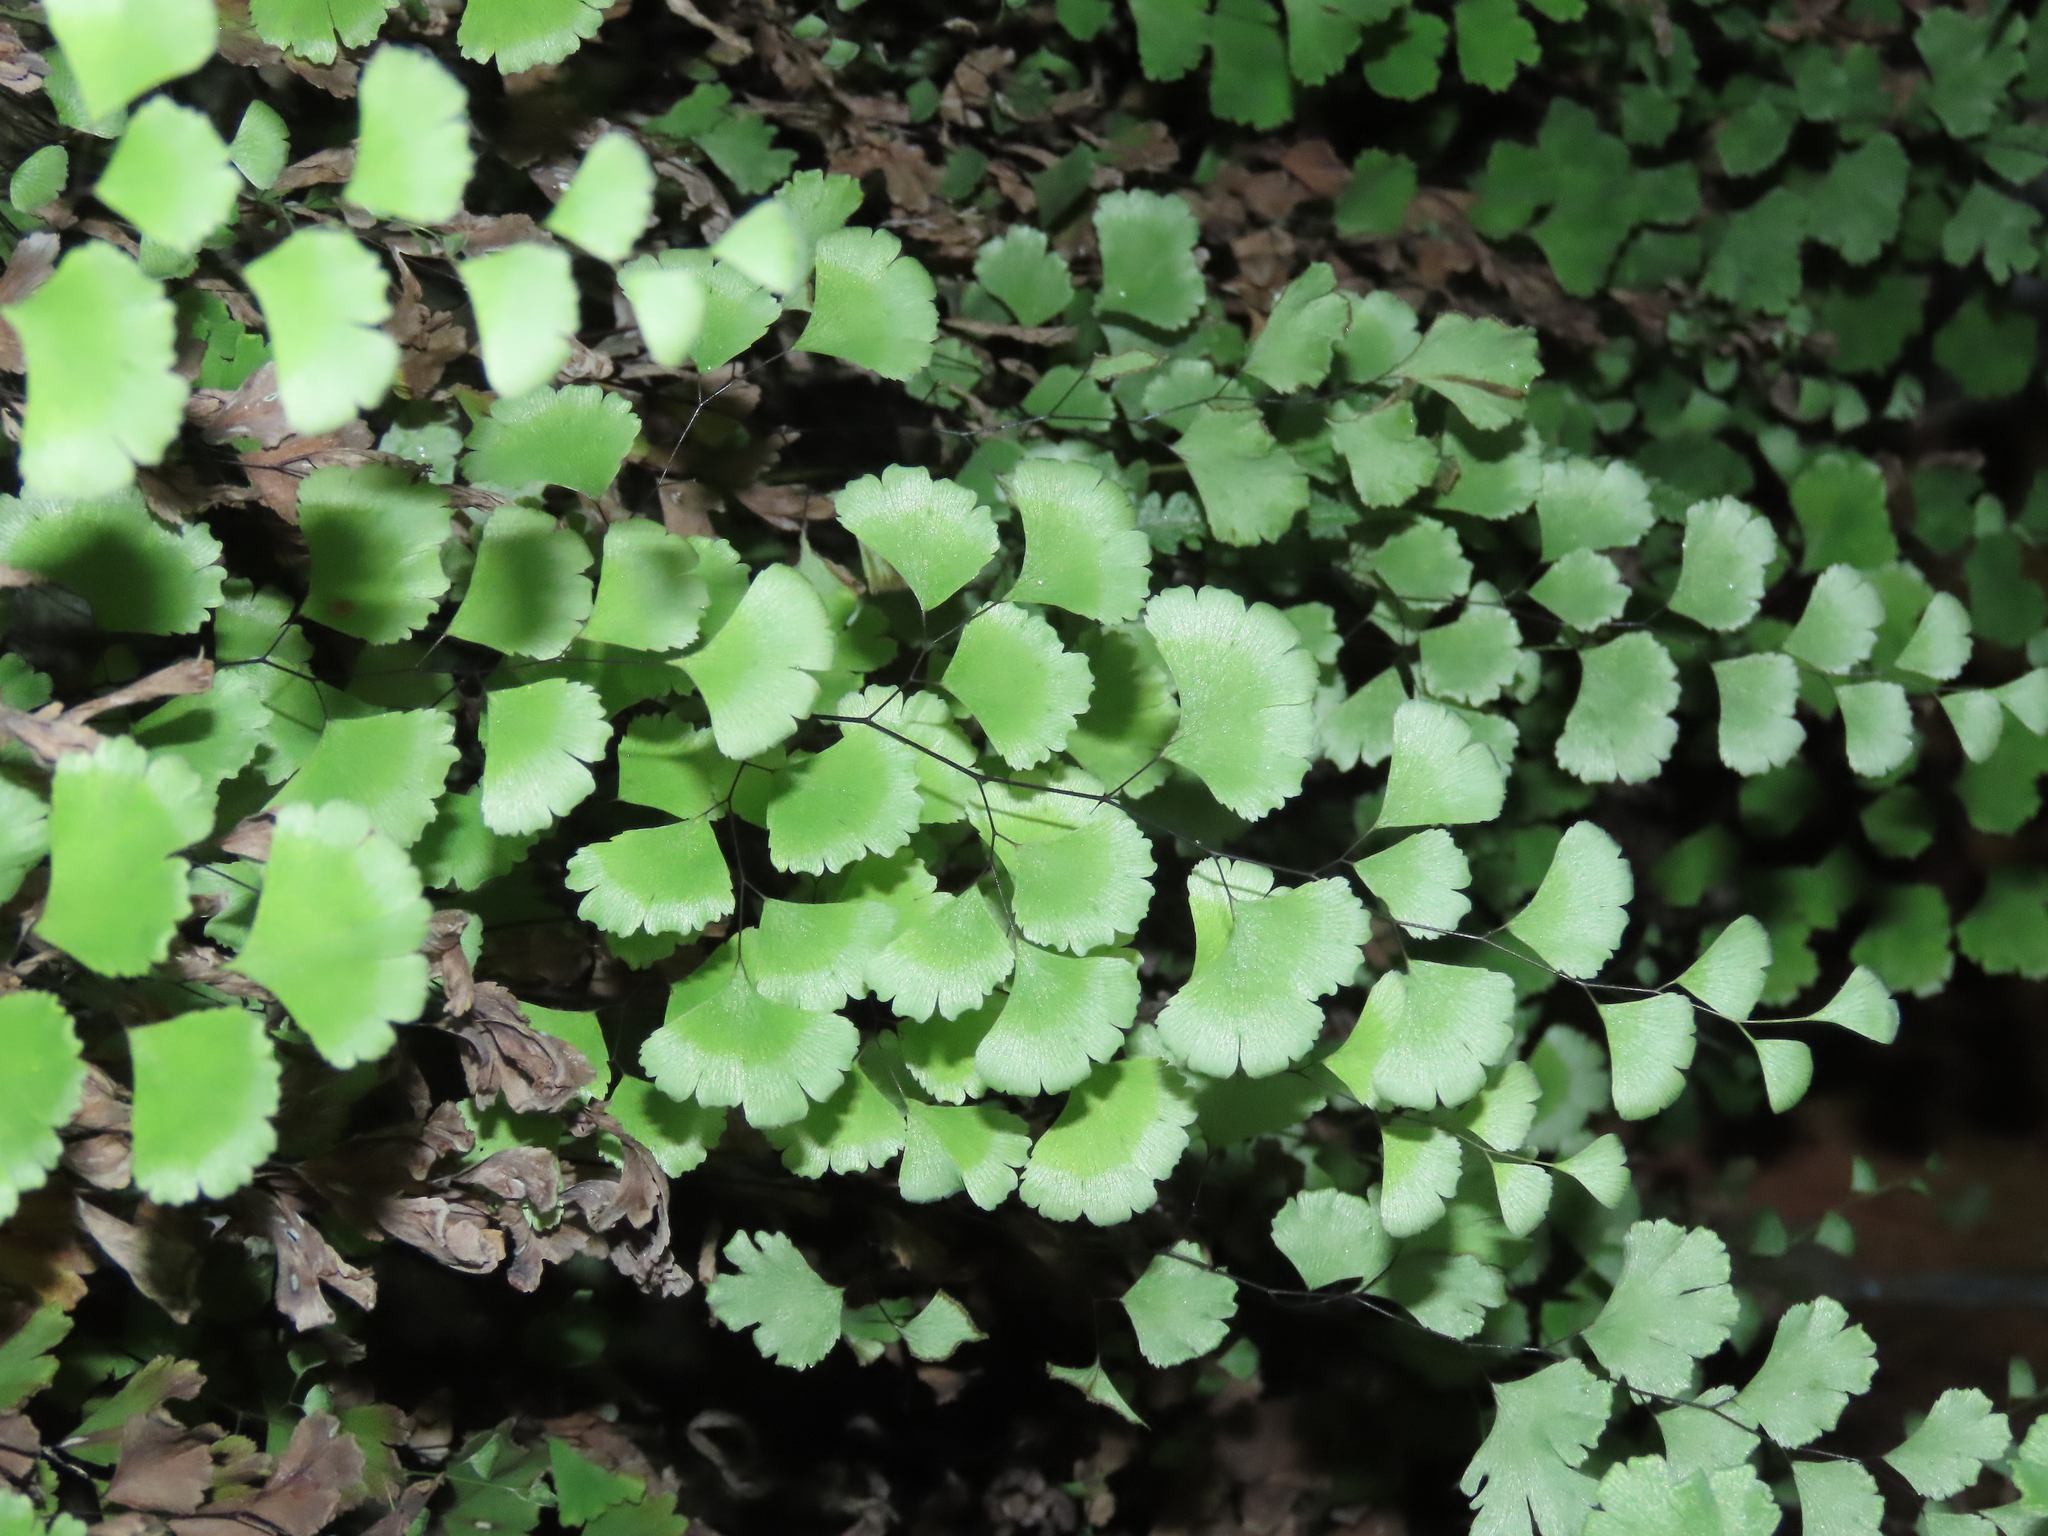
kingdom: Plantae
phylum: Tracheophyta
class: Polypodiopsida
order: Polypodiales
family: Pteridaceae
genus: Adiantum
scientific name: Adiantum capillus-veneris
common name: Maidenhair fern
